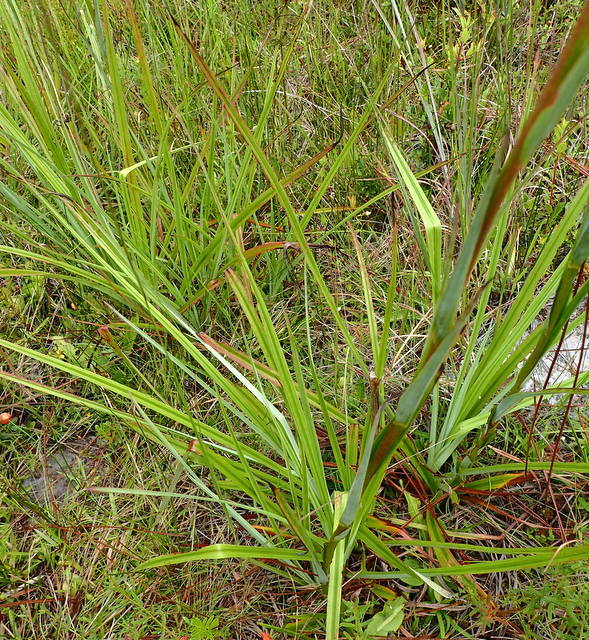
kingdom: Plantae
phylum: Tracheophyta
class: Liliopsida
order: Liliales
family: Melanthiaceae
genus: Zigadenus
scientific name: Zigadenus glaberrimus
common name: Sandbog death camas
